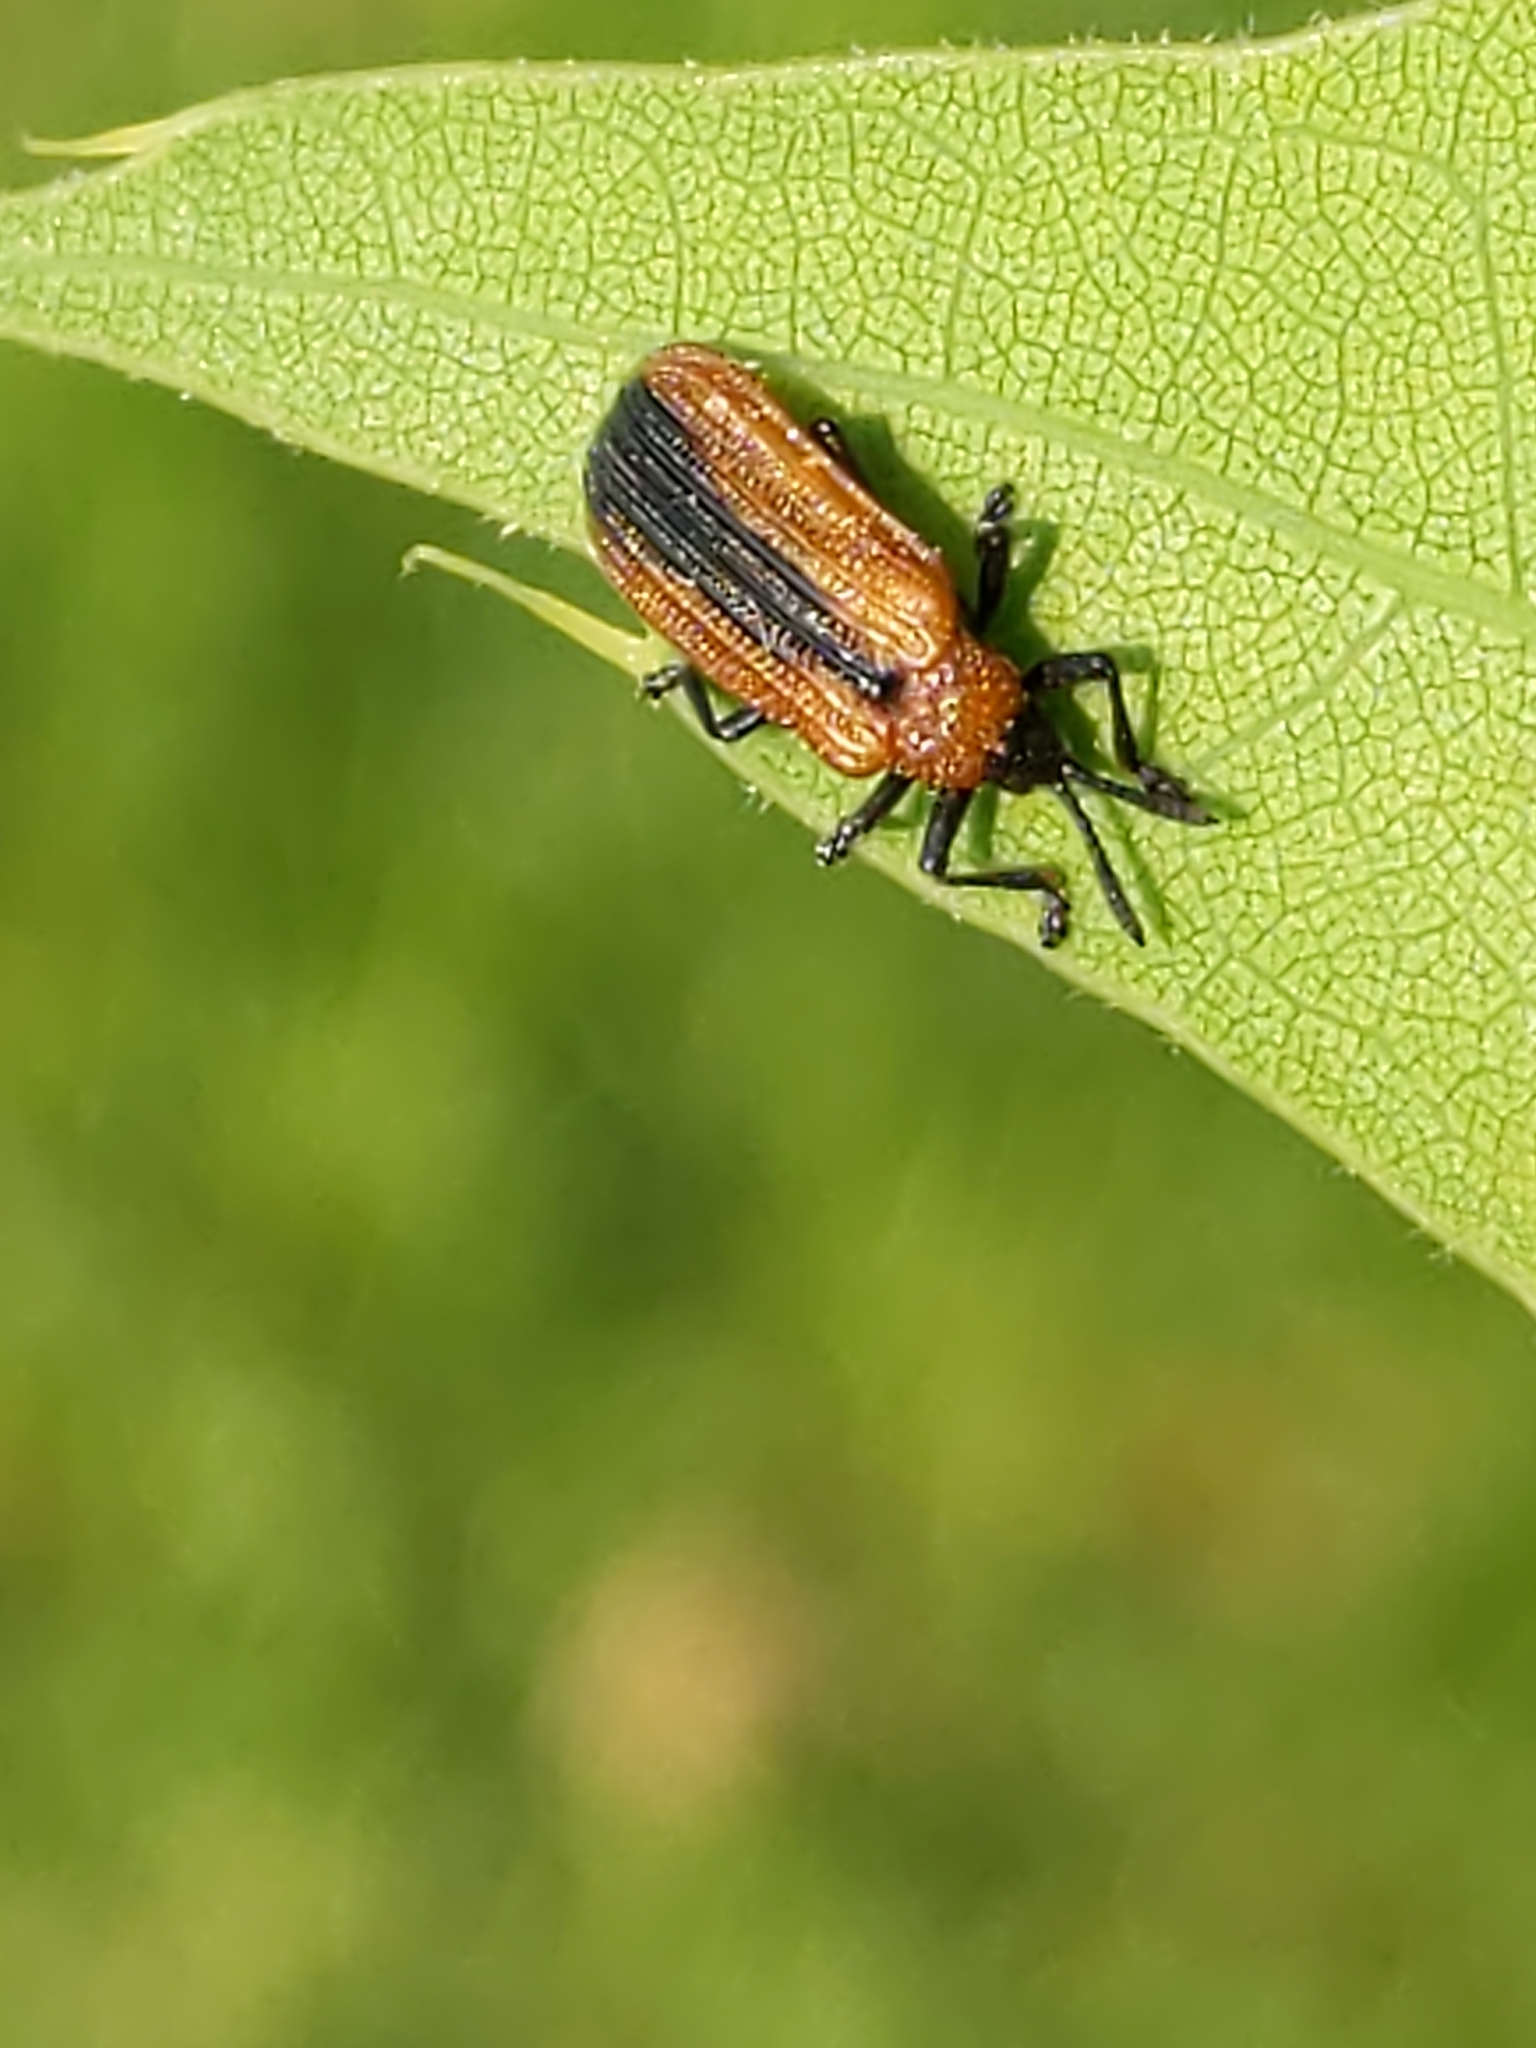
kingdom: Animalia
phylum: Arthropoda
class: Insecta
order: Coleoptera
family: Chrysomelidae
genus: Odontota
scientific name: Odontota dorsalis
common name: Locust leaf-miner beetle
